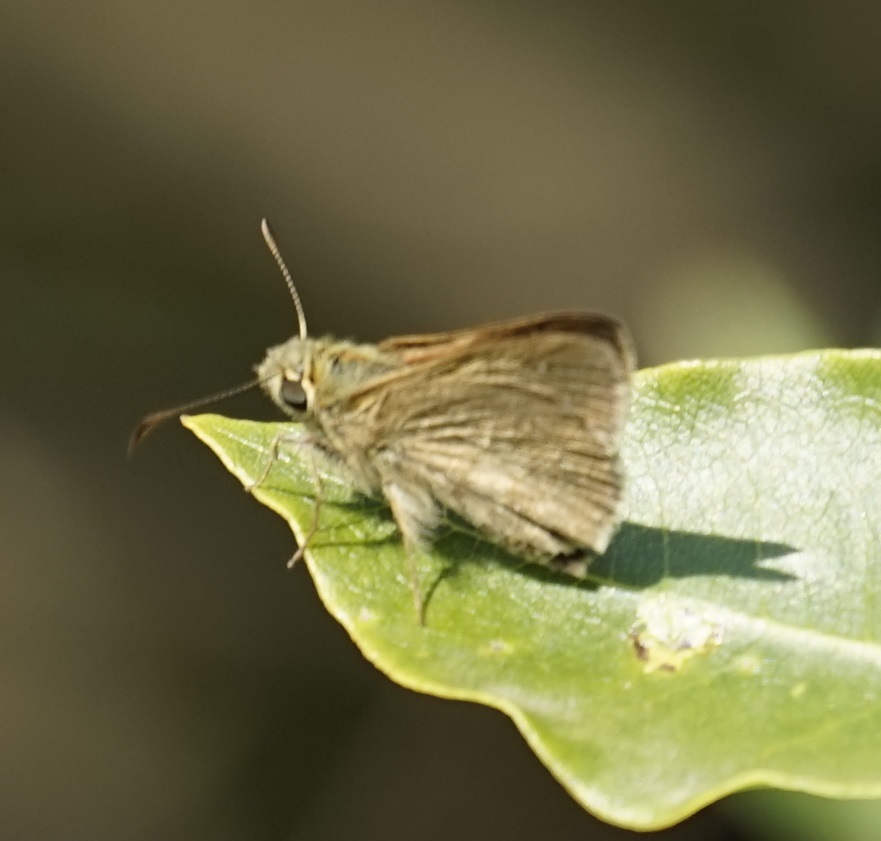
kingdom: Animalia
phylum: Arthropoda
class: Insecta
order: Lepidoptera
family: Hesperiidae
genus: Toxidia
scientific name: Toxidia
